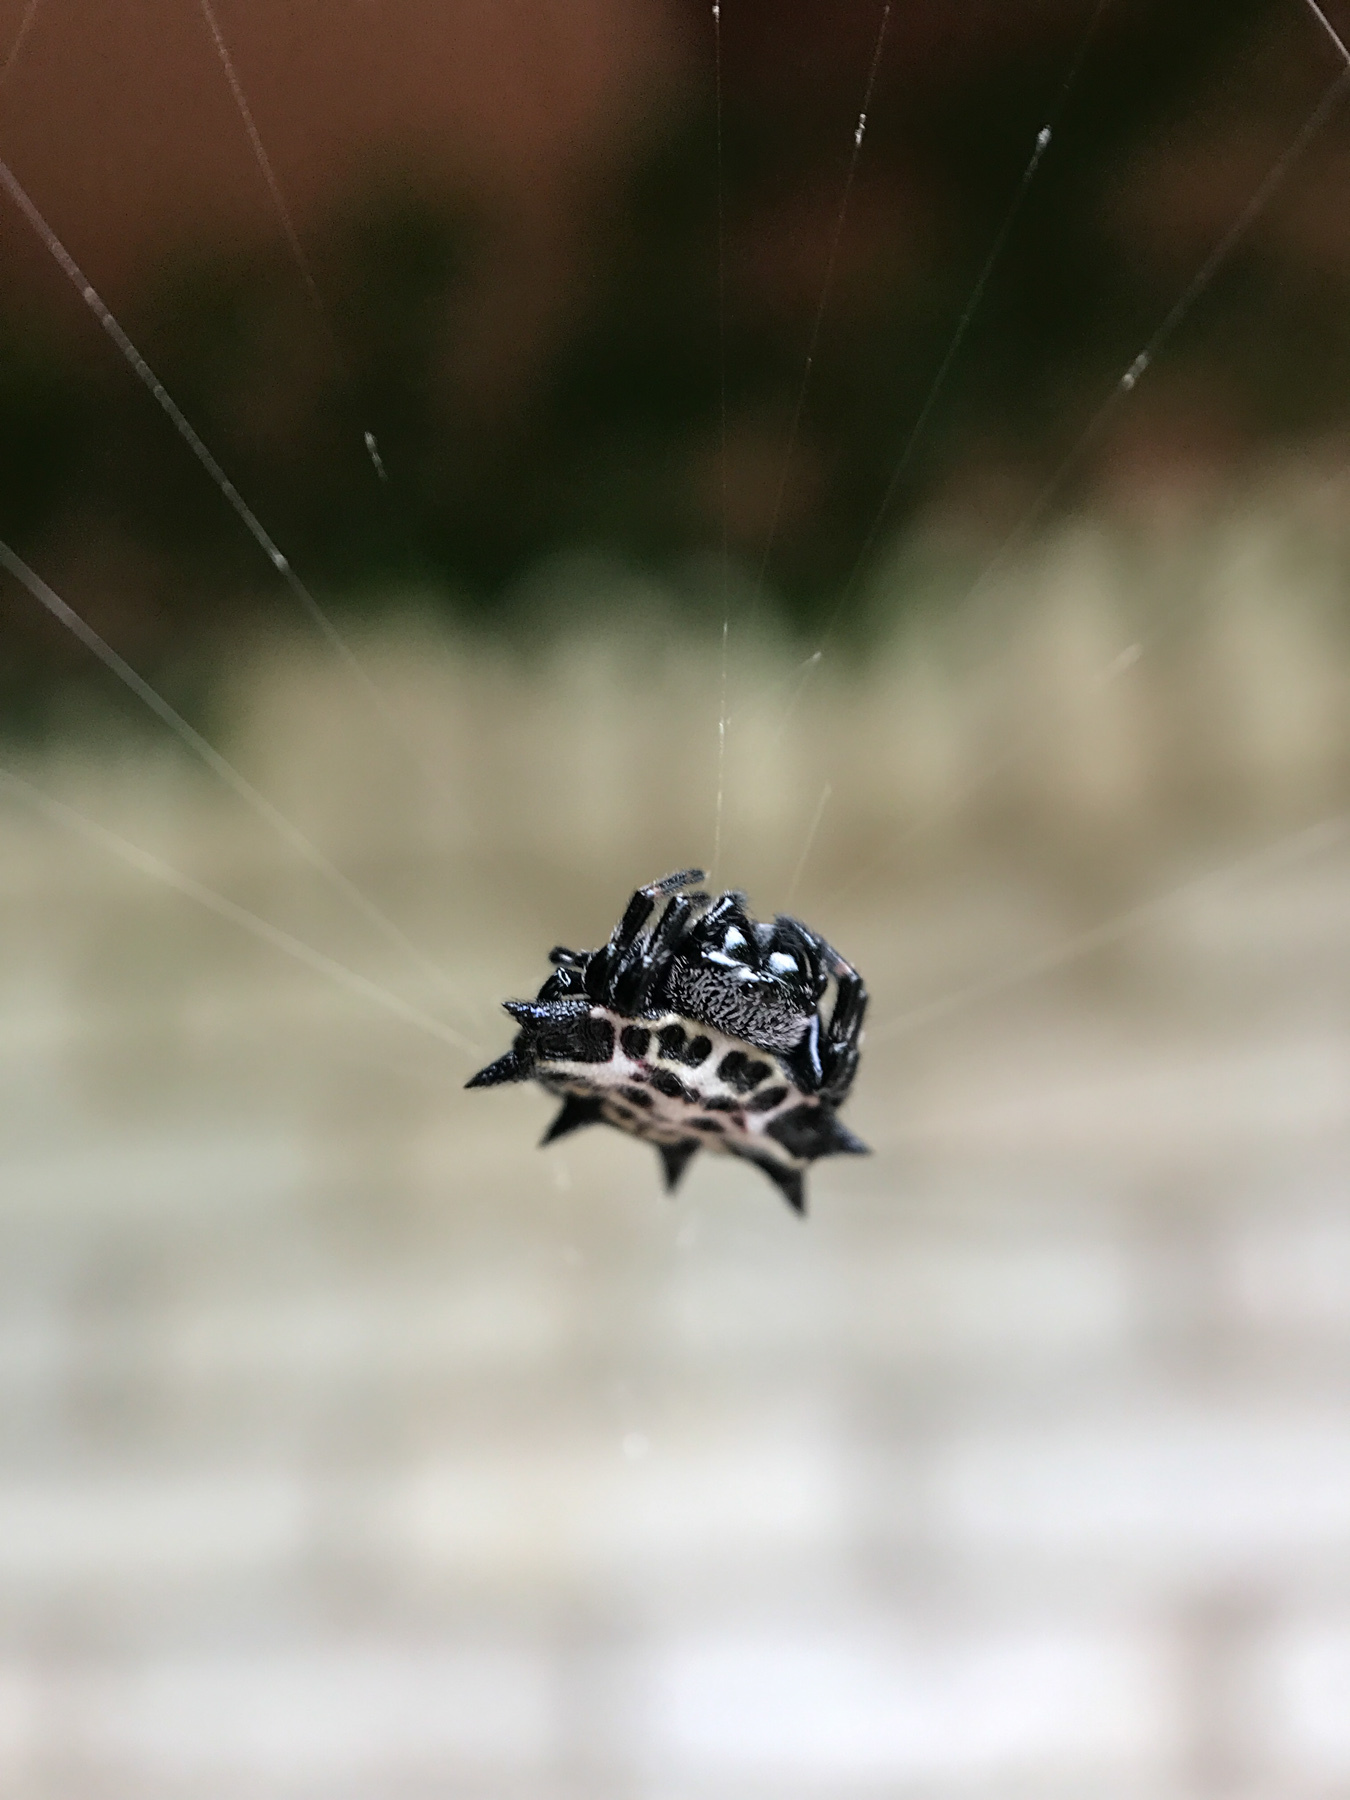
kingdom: Animalia
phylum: Arthropoda
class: Arachnida
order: Araneae
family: Araneidae
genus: Gasteracantha
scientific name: Gasteracantha cancriformis
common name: Orb weavers
